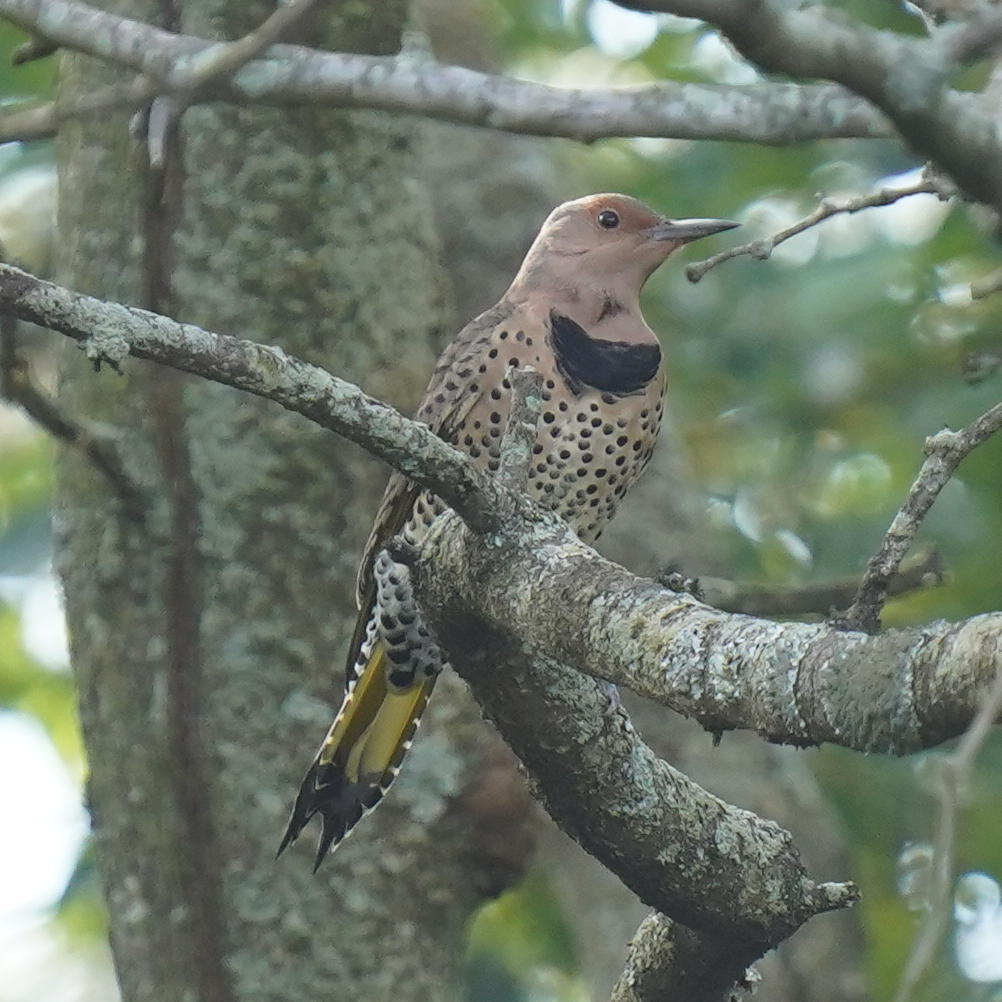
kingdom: Animalia
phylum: Chordata
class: Aves
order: Piciformes
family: Picidae
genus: Colaptes
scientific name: Colaptes auratus
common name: Northern flicker
